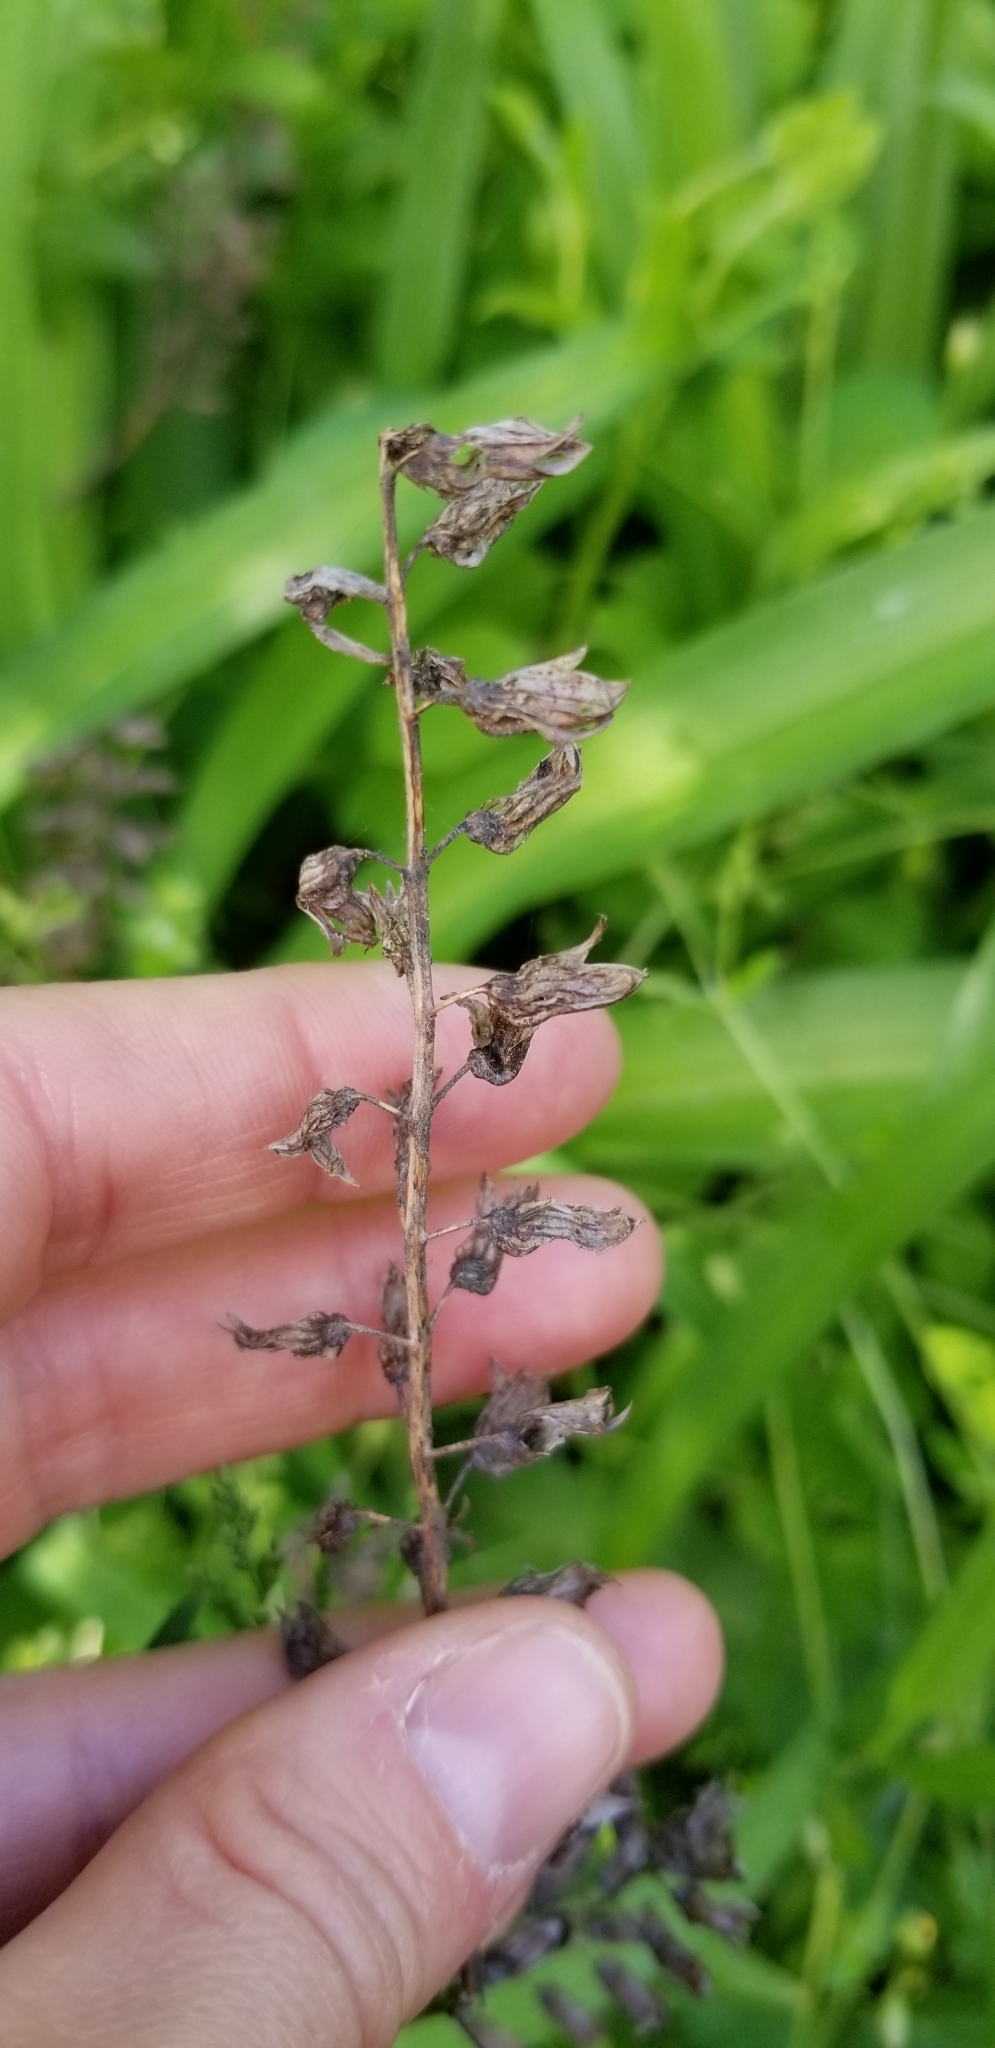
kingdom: Plantae
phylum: Tracheophyta
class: Magnoliopsida
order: Lamiales
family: Lamiaceae
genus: Perilla
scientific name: Perilla frutescens
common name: Perilla
